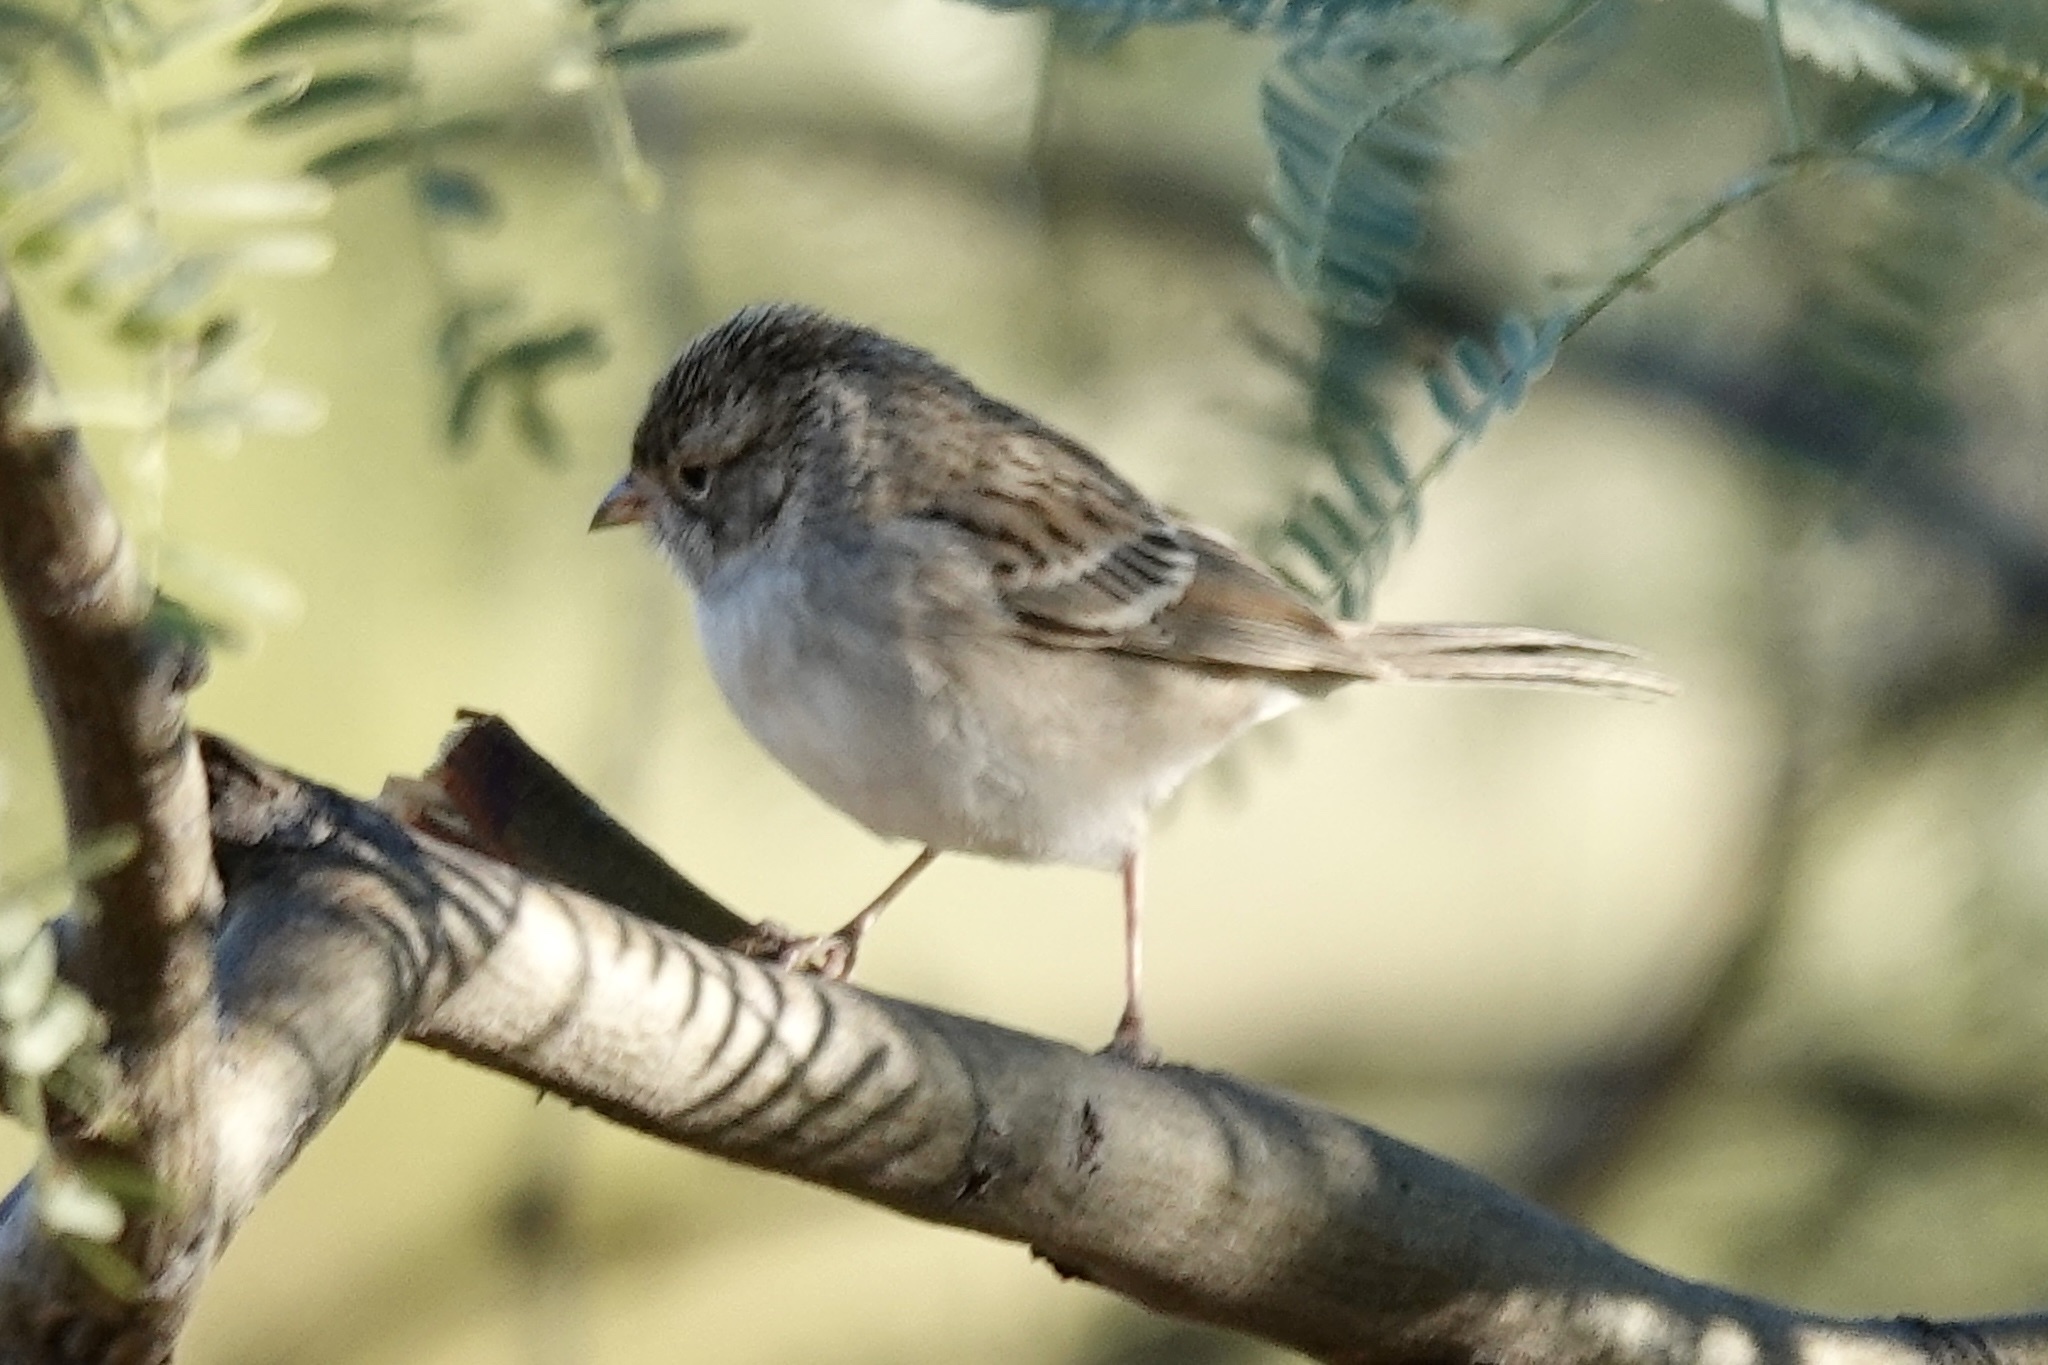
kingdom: Animalia
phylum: Chordata
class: Aves
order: Passeriformes
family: Passerellidae
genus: Spizella
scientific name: Spizella breweri
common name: Brewer's sparrow
